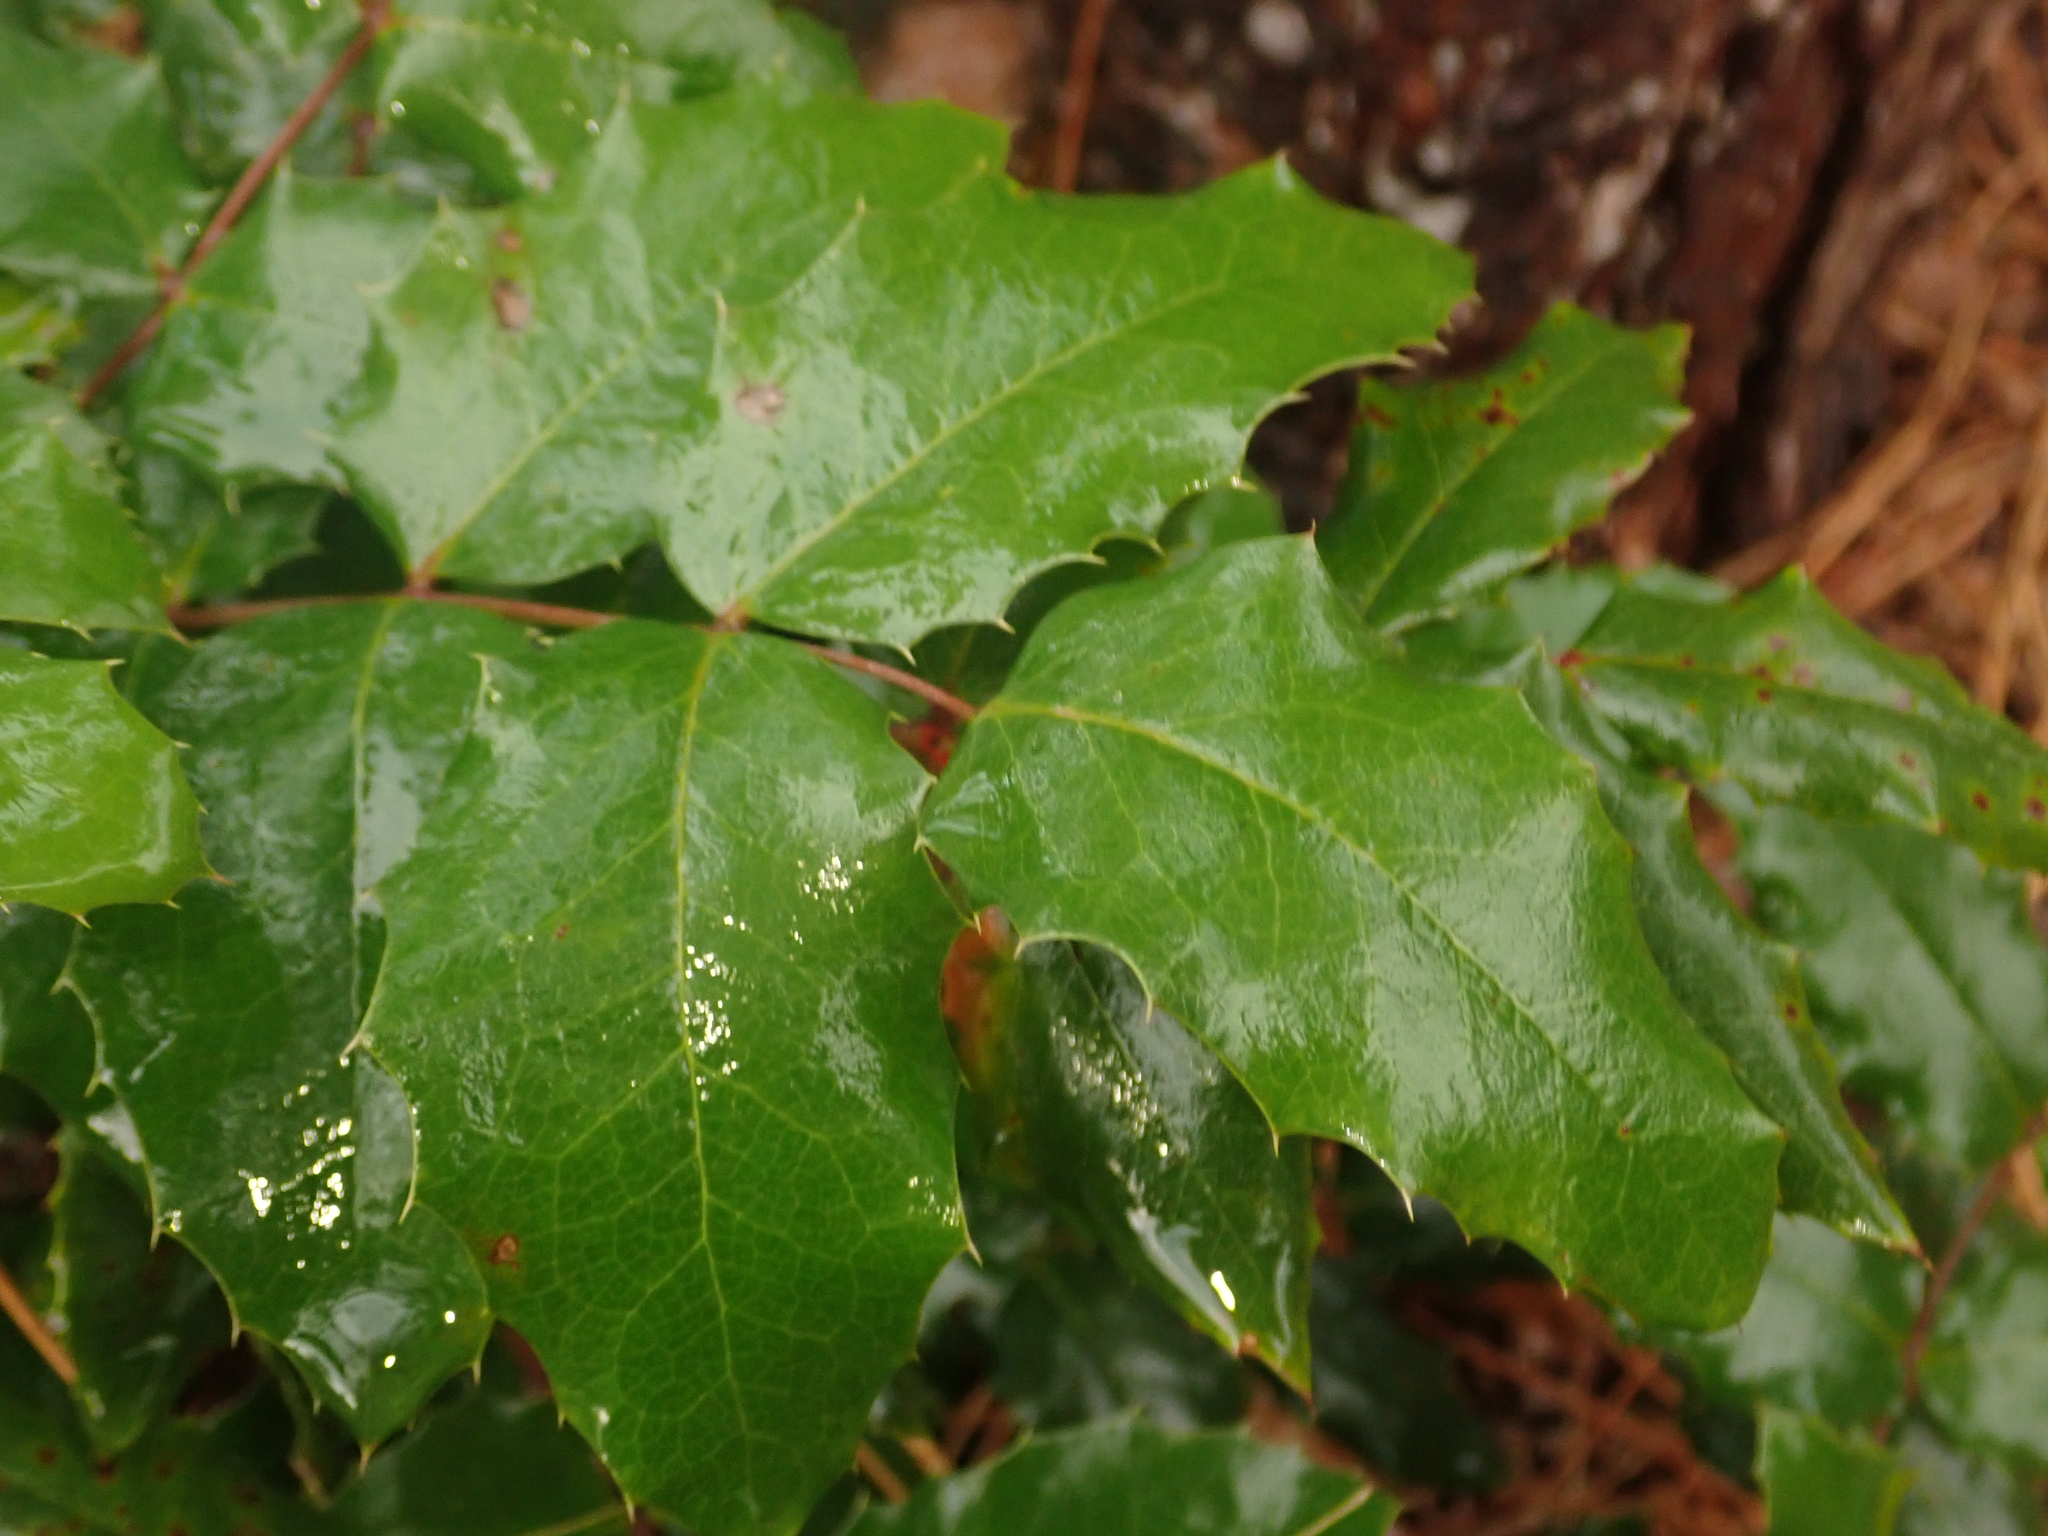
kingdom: Plantae
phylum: Tracheophyta
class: Magnoliopsida
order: Ranunculales
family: Berberidaceae
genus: Mahonia
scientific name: Mahonia aquifolium
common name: Oregon-grape
